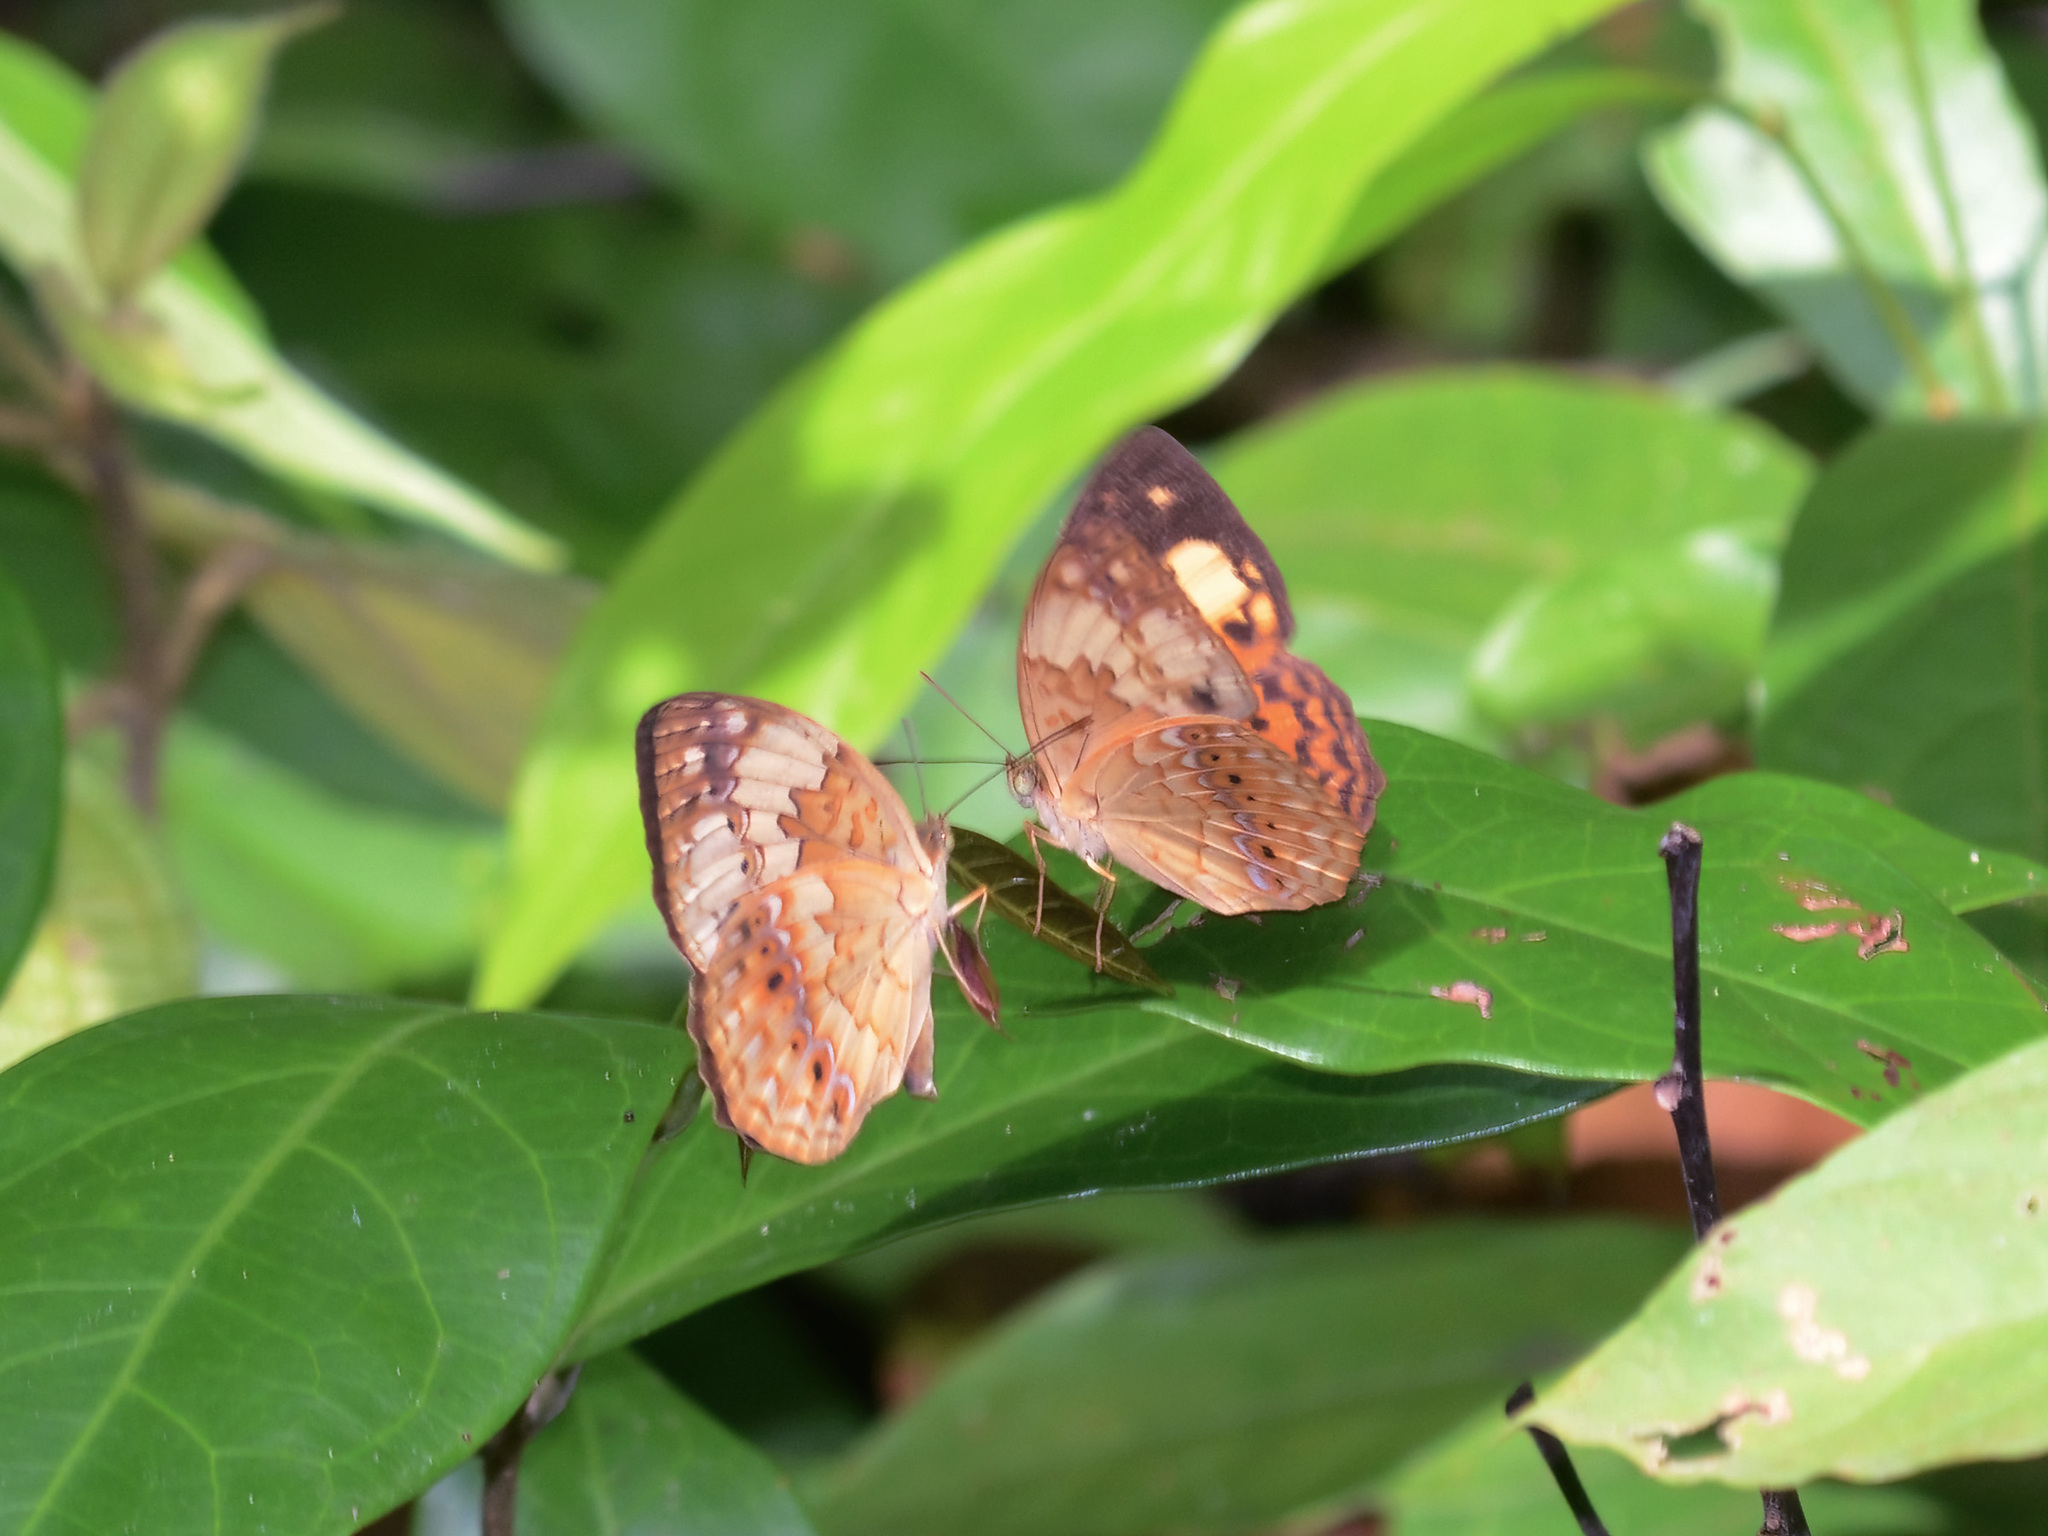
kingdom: Animalia
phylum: Arthropoda
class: Insecta
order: Lepidoptera
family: Nymphalidae
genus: Cupha
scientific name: Cupha erymanthis
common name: Rustic
